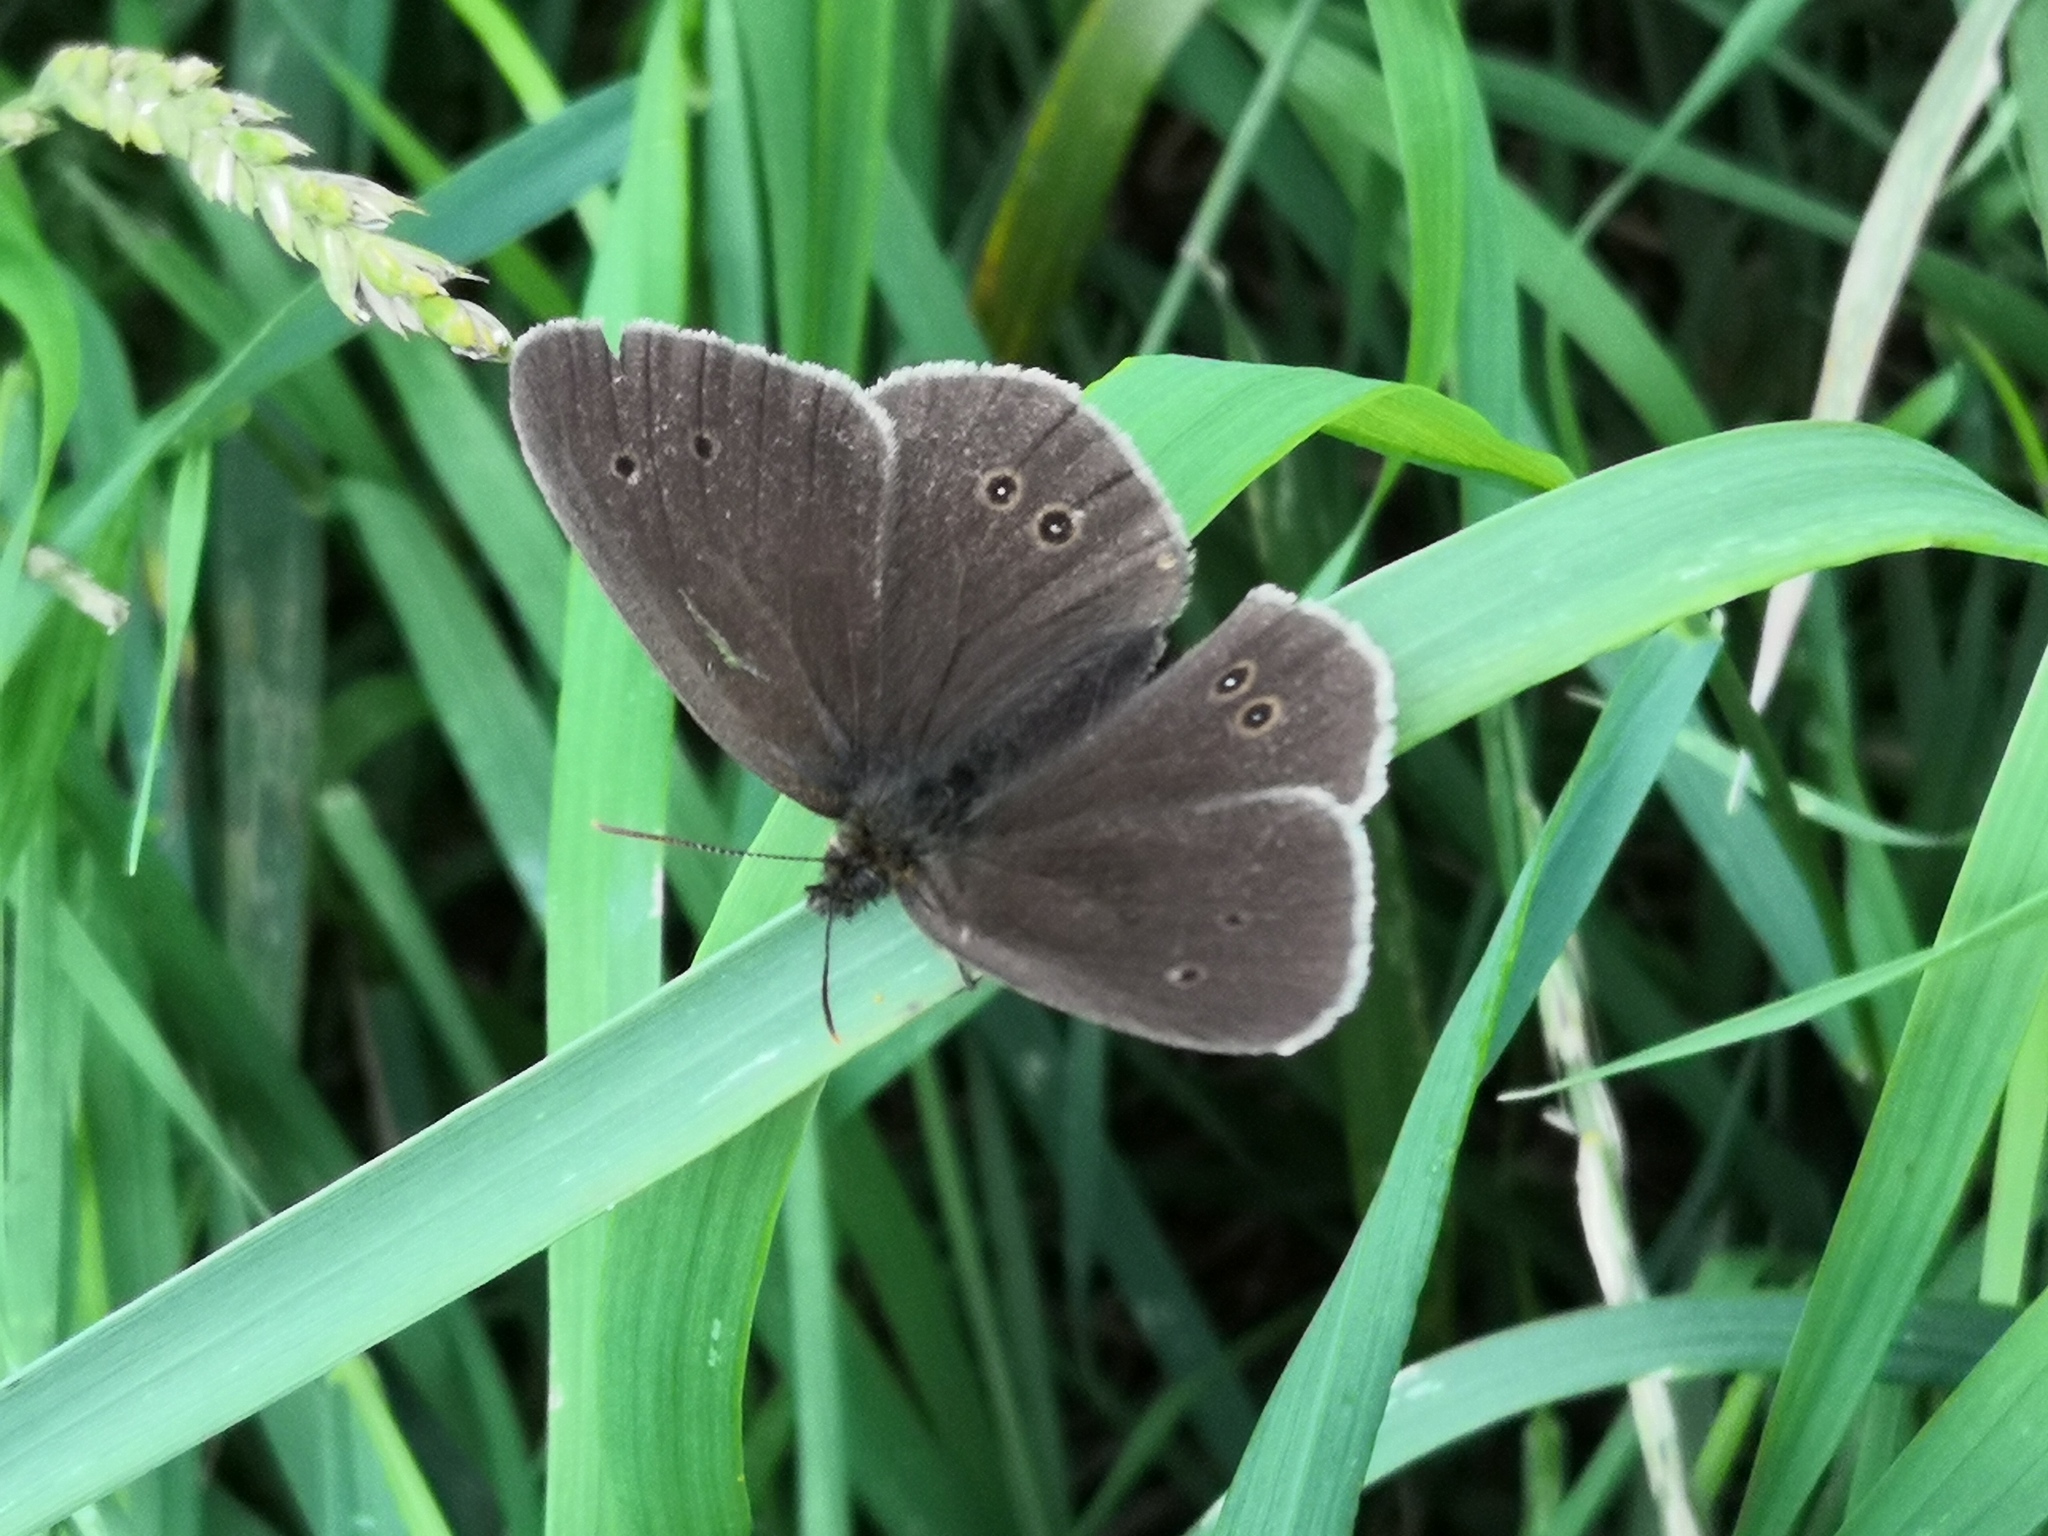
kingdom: Animalia
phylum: Arthropoda
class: Insecta
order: Lepidoptera
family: Nymphalidae
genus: Aphantopus
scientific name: Aphantopus hyperantus
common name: Ringlet
